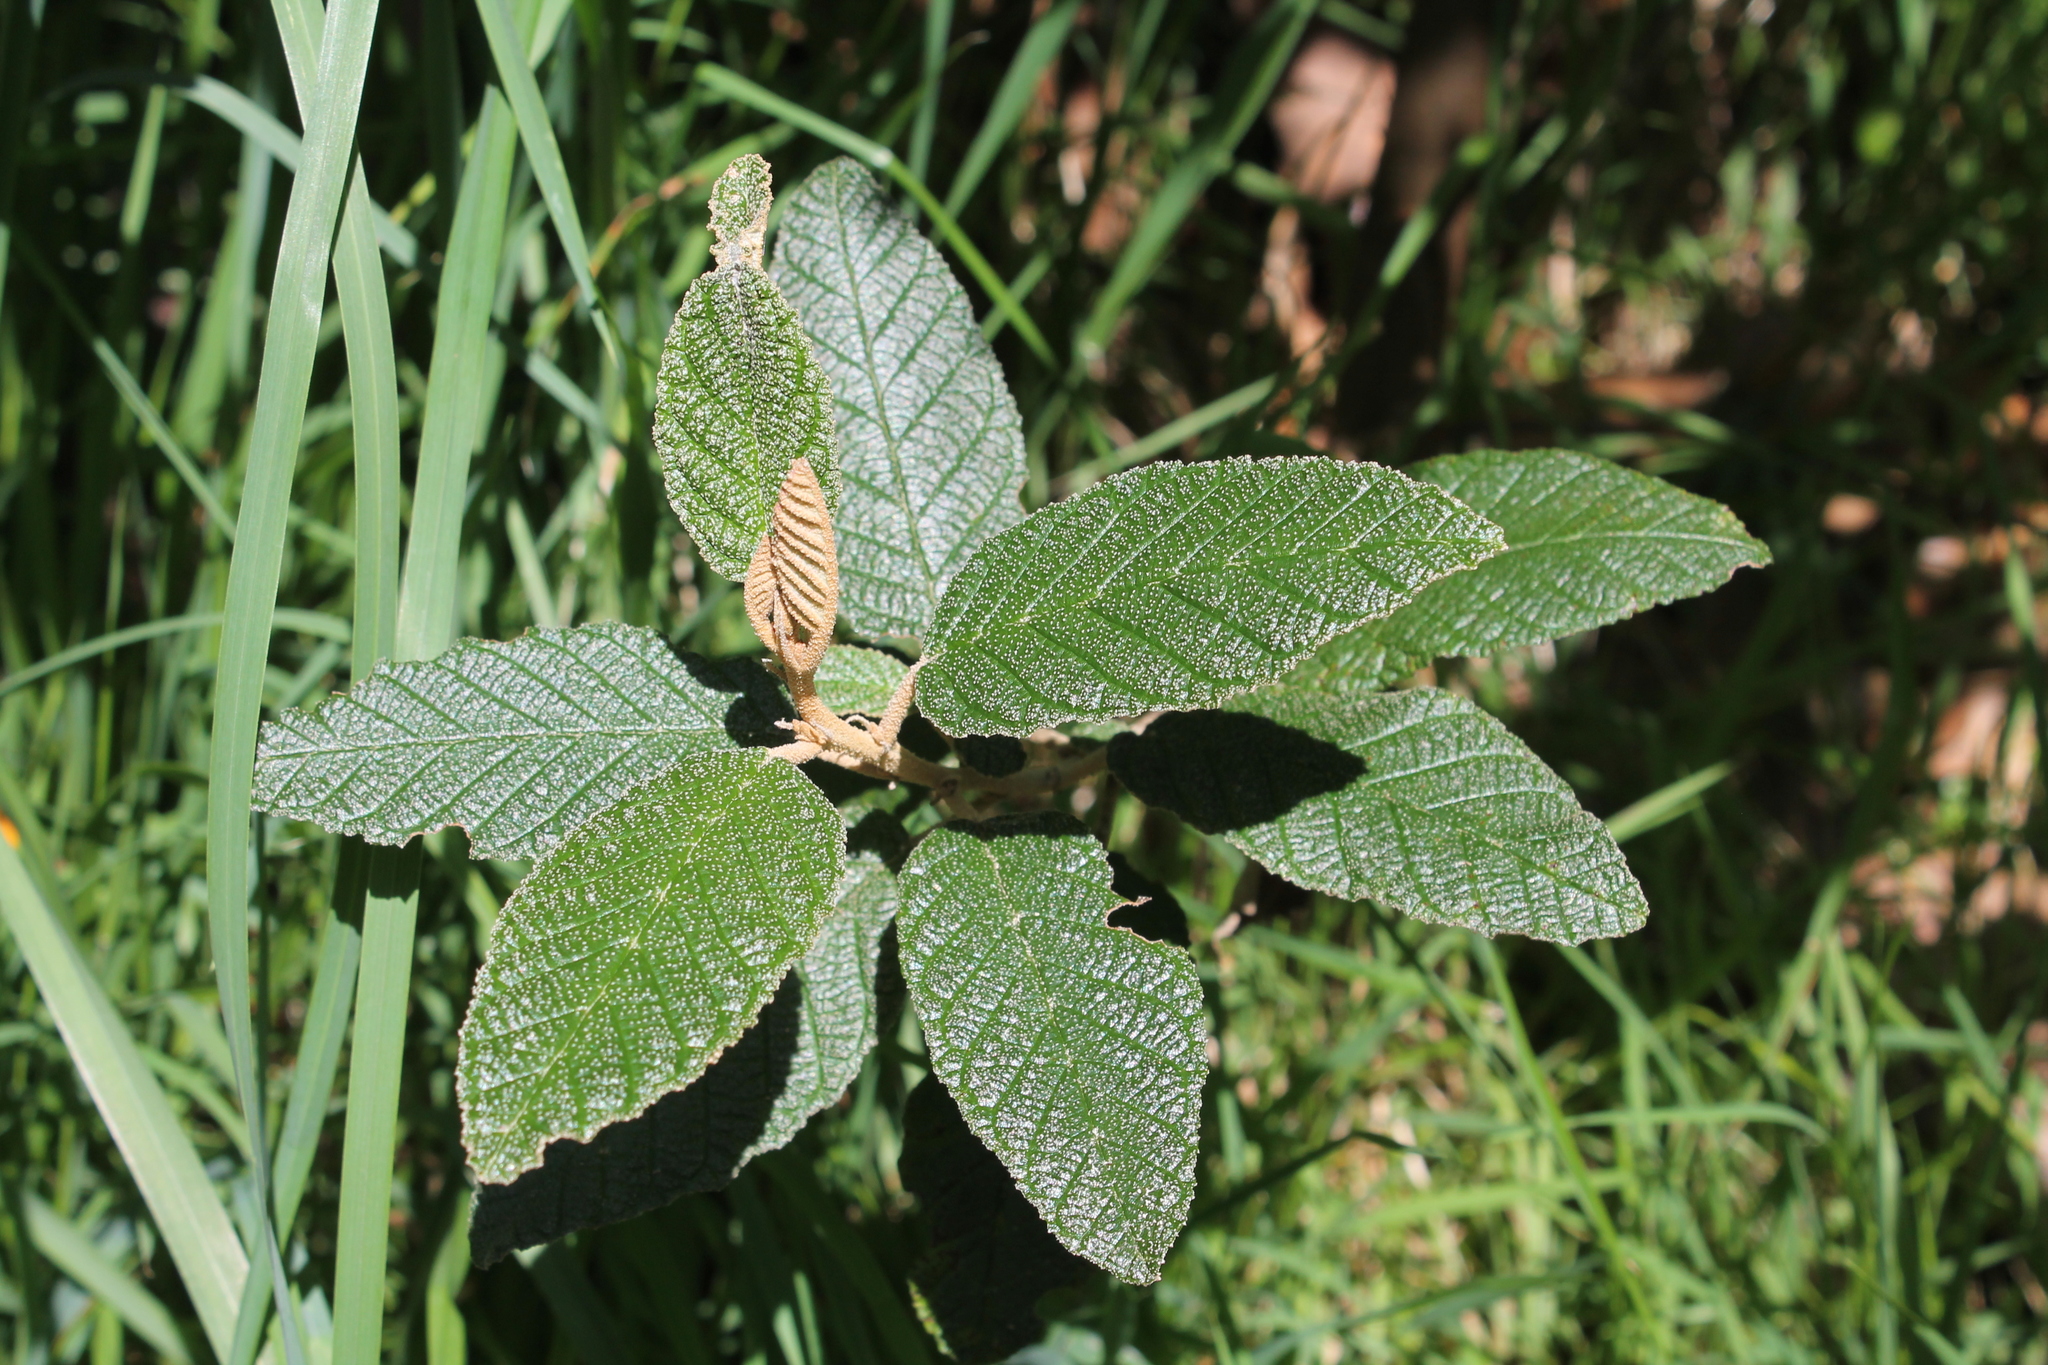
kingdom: Plantae
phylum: Tracheophyta
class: Magnoliopsida
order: Rosales
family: Rhamnaceae
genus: Pomaderris
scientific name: Pomaderris apetala
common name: Hazel pomaderris
